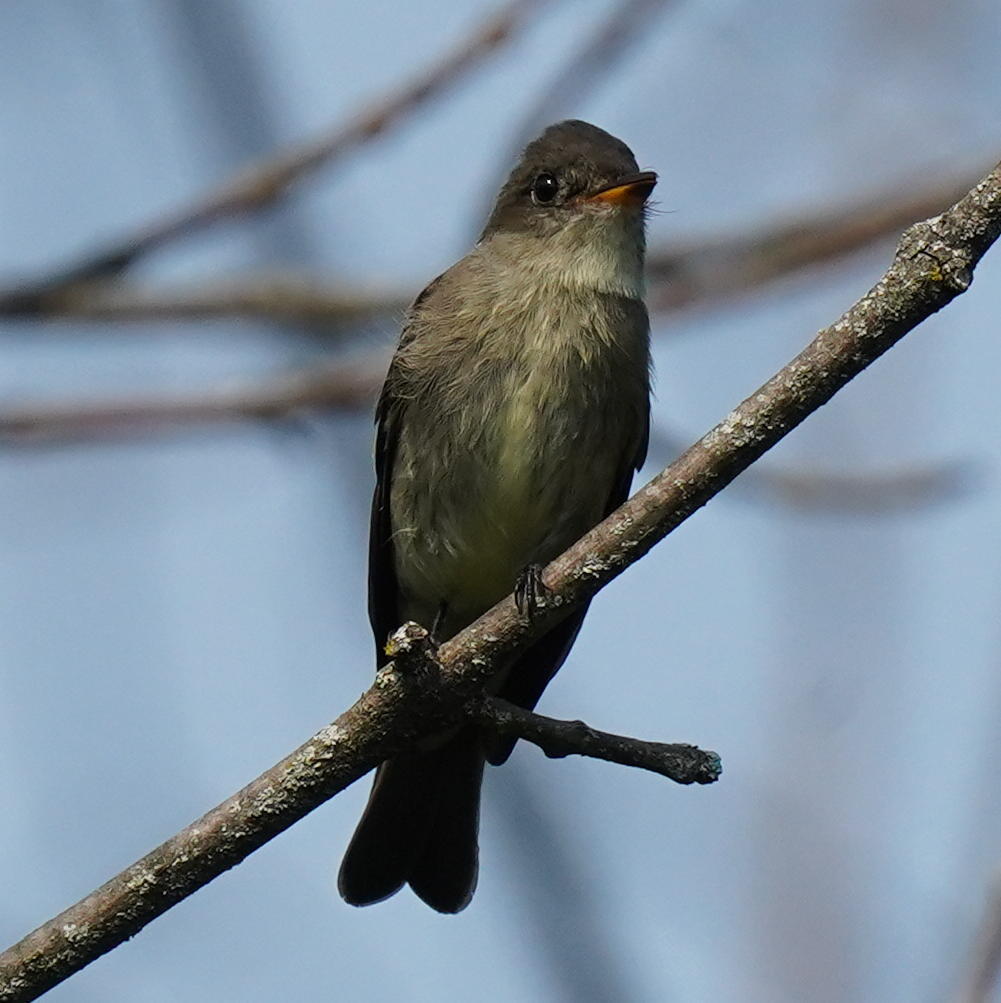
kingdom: Animalia
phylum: Chordata
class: Aves
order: Passeriformes
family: Tyrannidae
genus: Contopus
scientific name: Contopus virens
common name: Eastern wood-pewee
